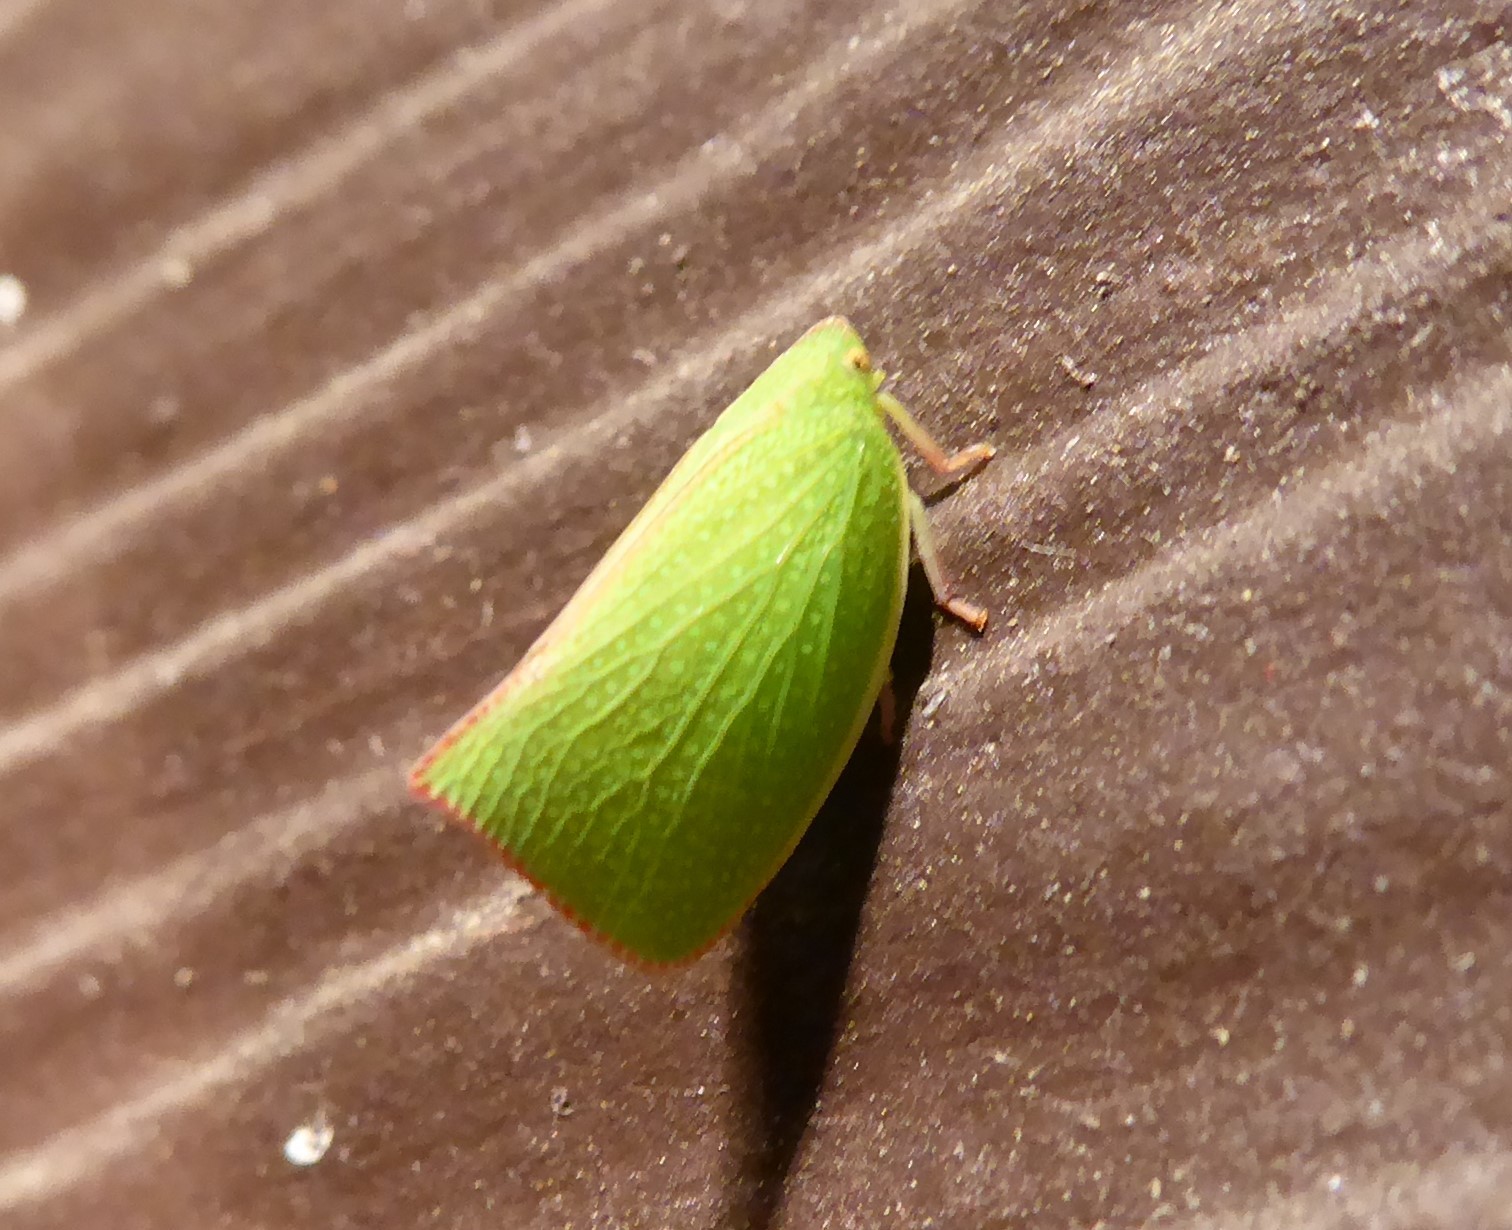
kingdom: Animalia
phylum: Arthropoda
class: Insecta
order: Hemiptera
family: Flatidae
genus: Siphanta
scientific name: Siphanta acuta
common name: Torpedo bug
